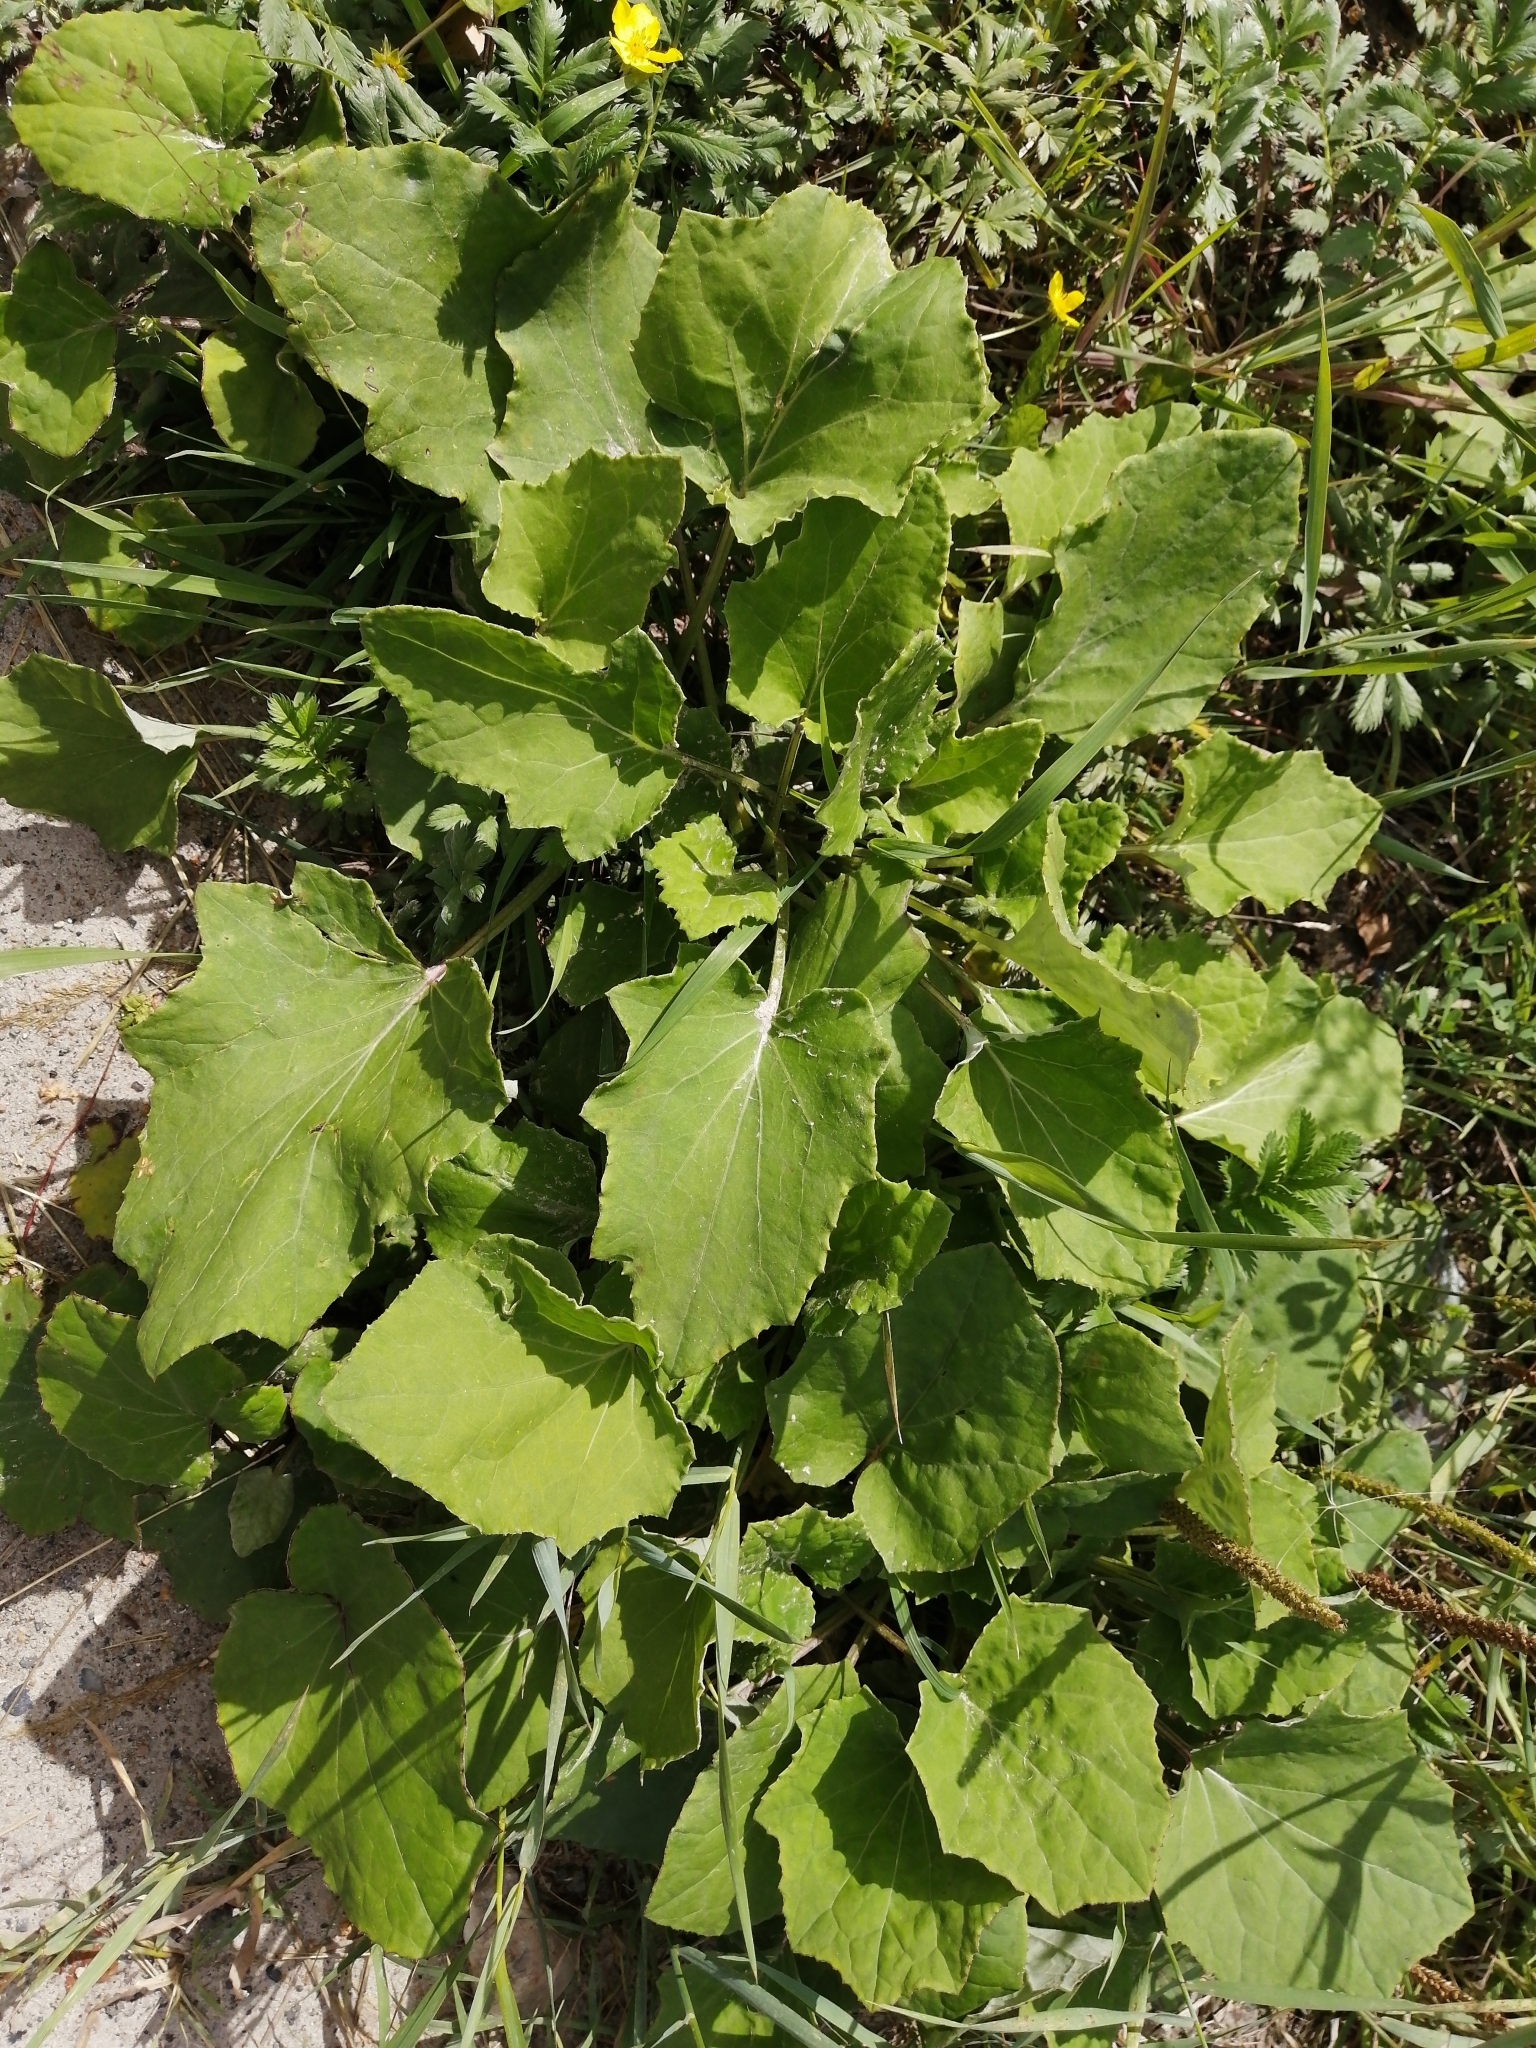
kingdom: Plantae
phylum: Tracheophyta
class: Magnoliopsida
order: Asterales
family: Asteraceae
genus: Tussilago
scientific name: Tussilago farfara
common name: Coltsfoot
